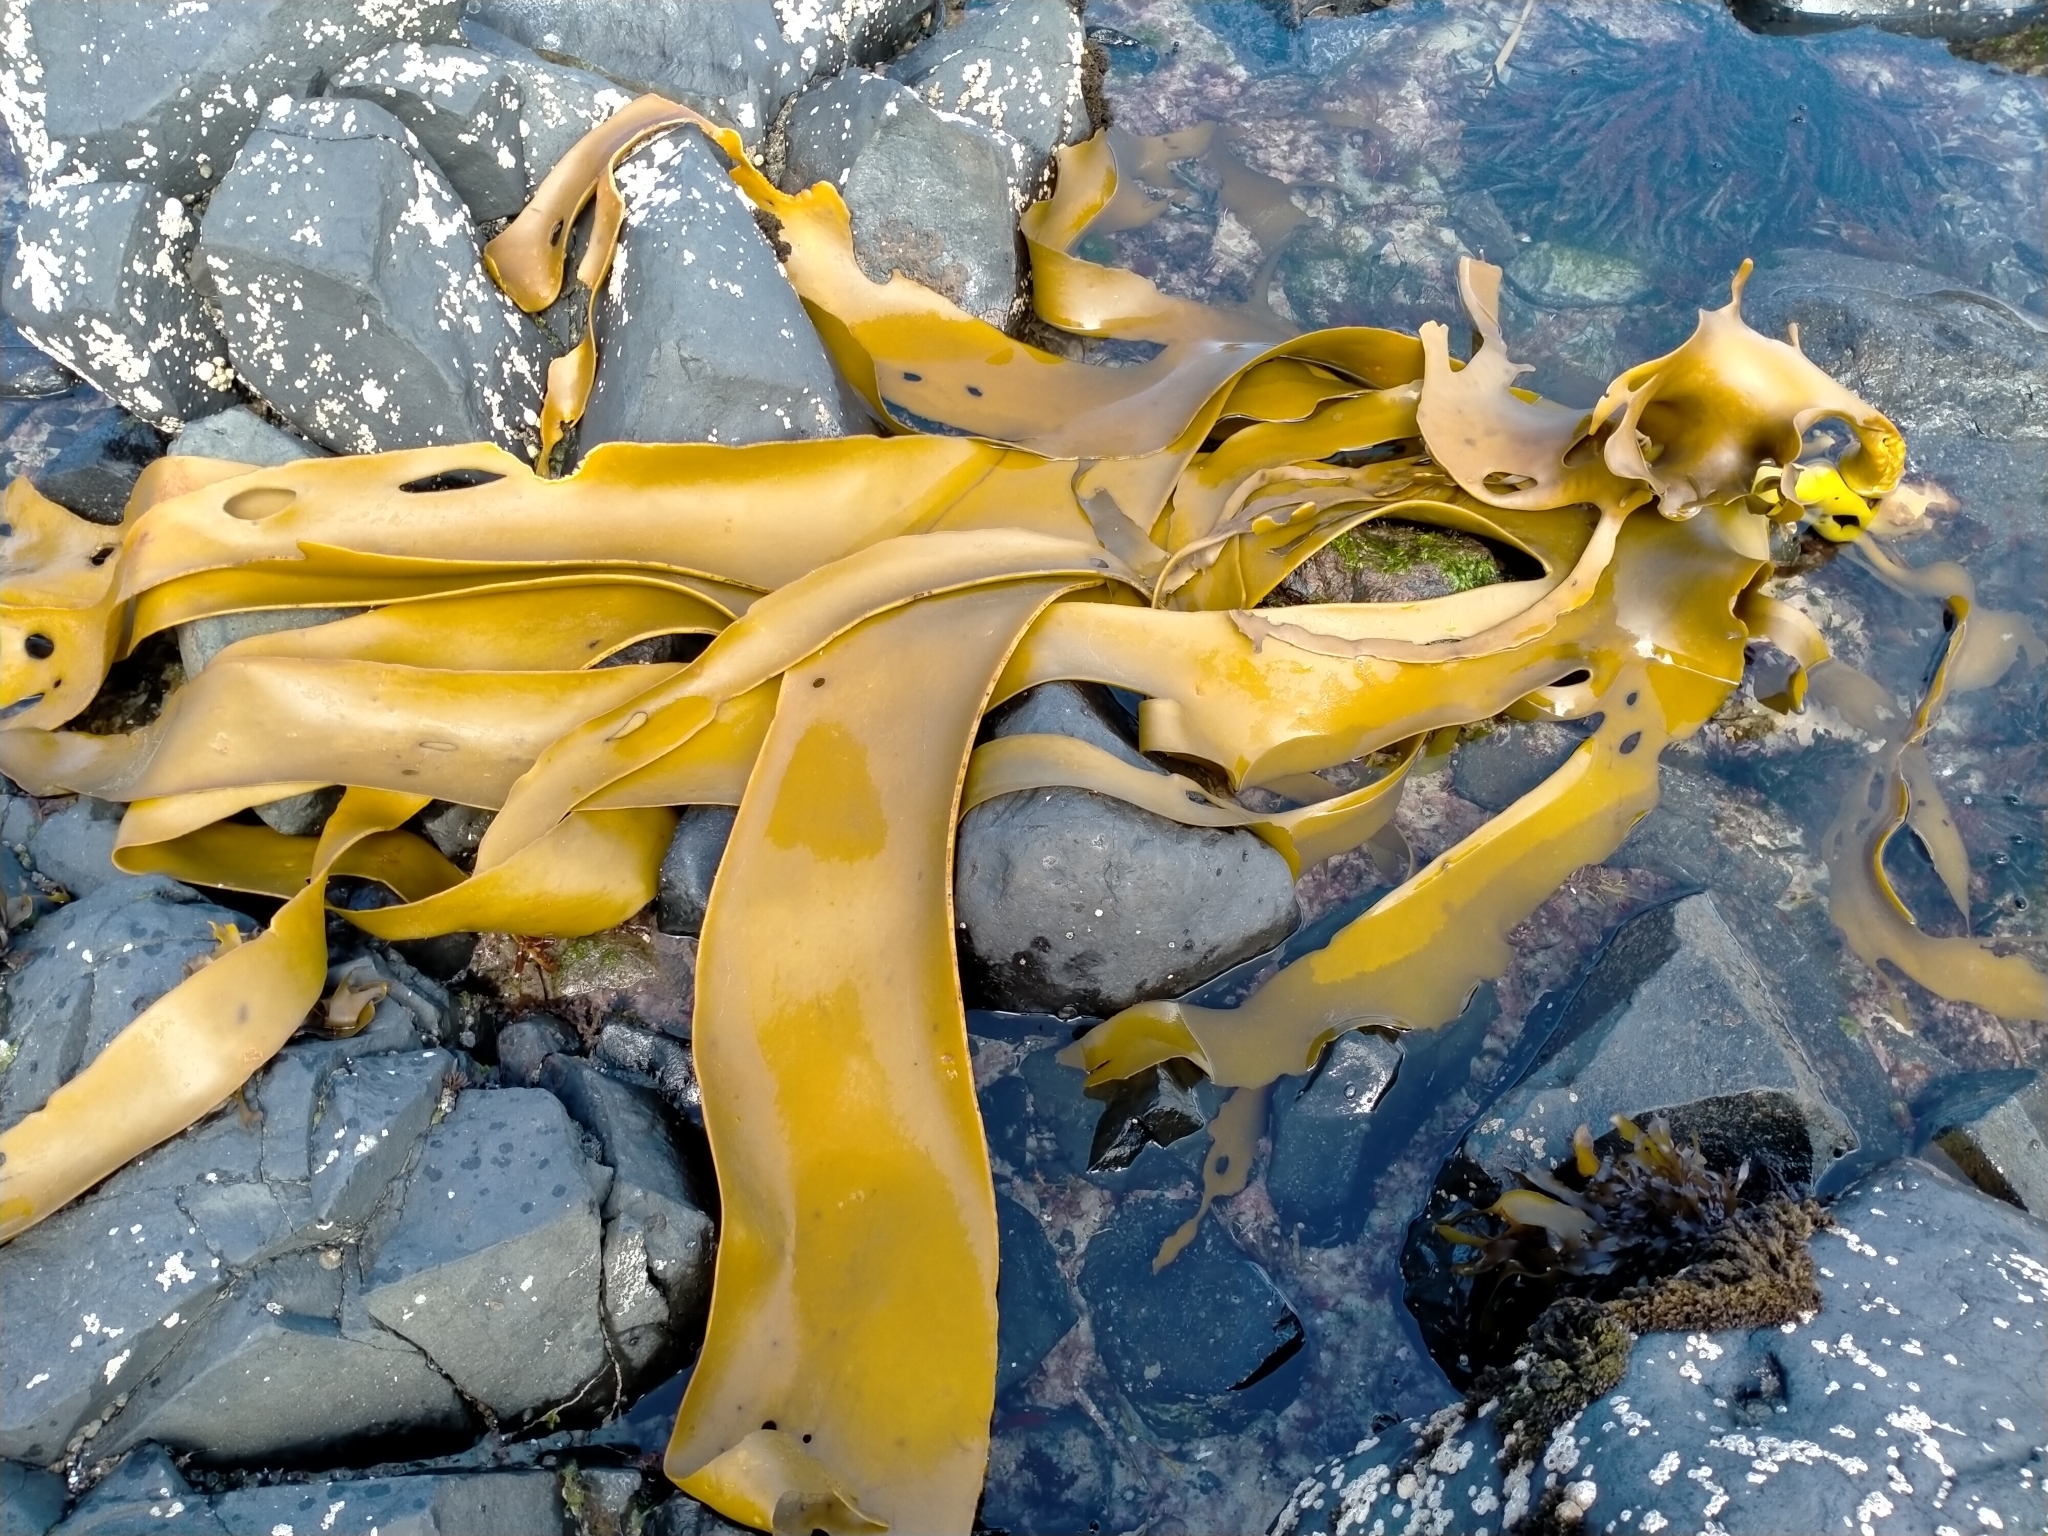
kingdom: Chromista
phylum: Ochrophyta
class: Phaeophyceae
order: Fucales
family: Durvillaeaceae
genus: Durvillaea
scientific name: Durvillaea poha
